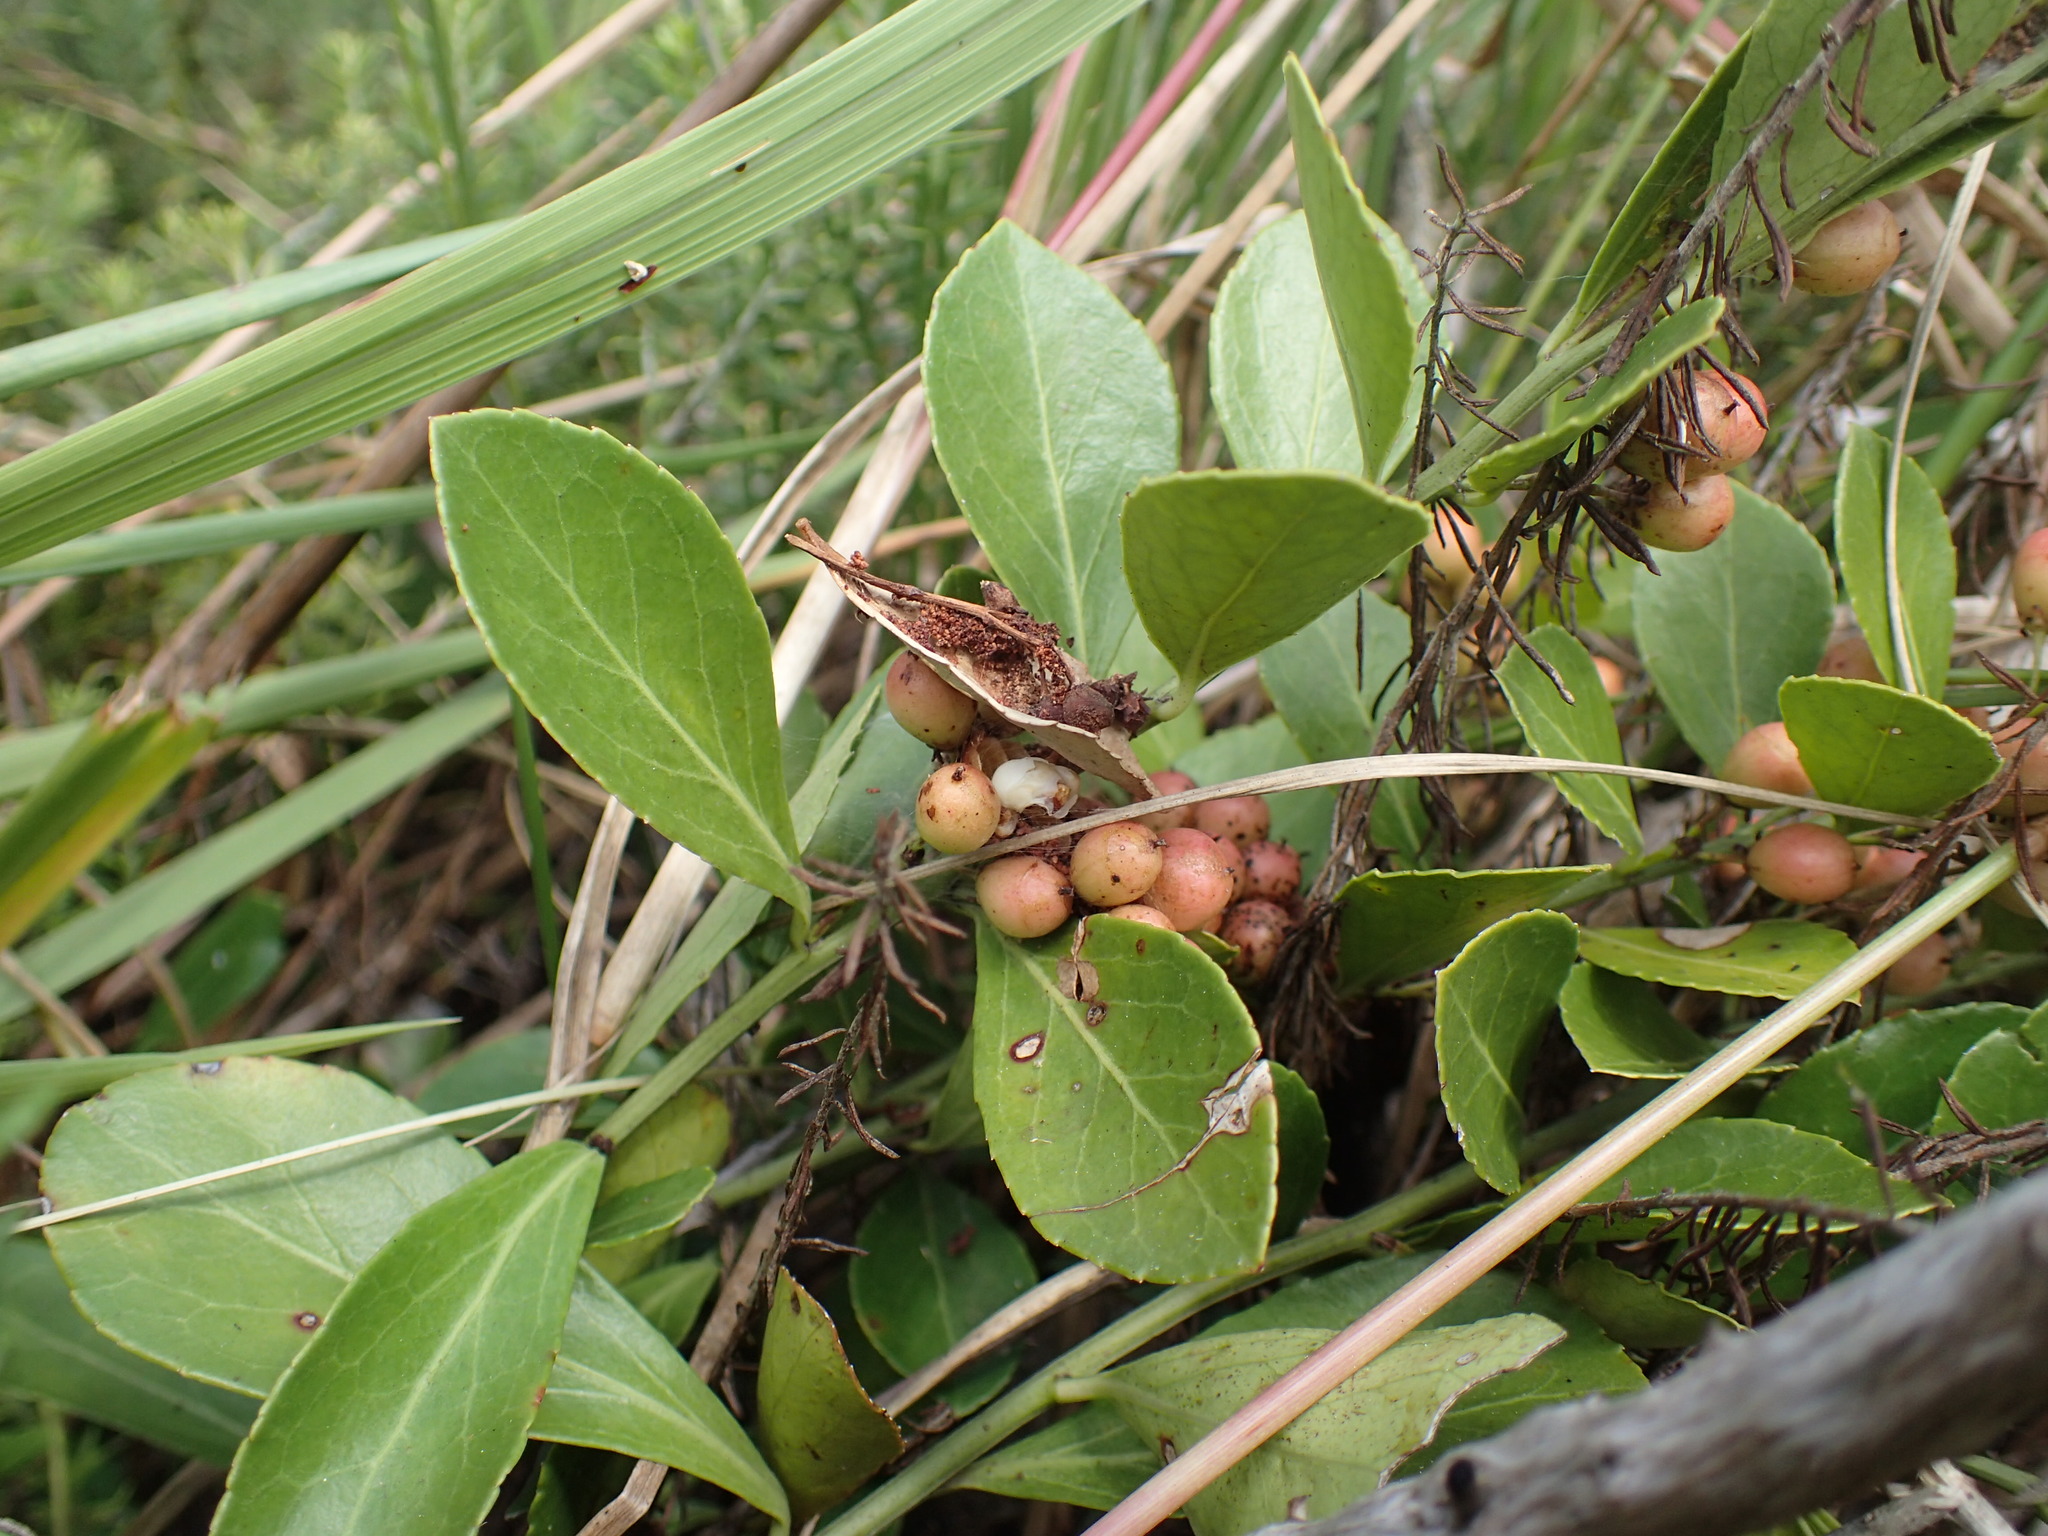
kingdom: Plantae
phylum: Tracheophyta
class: Magnoliopsida
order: Celastrales
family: Celastraceae
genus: Gymnosporia
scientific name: Gymnosporia arenicola
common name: Dune spike-thorn
